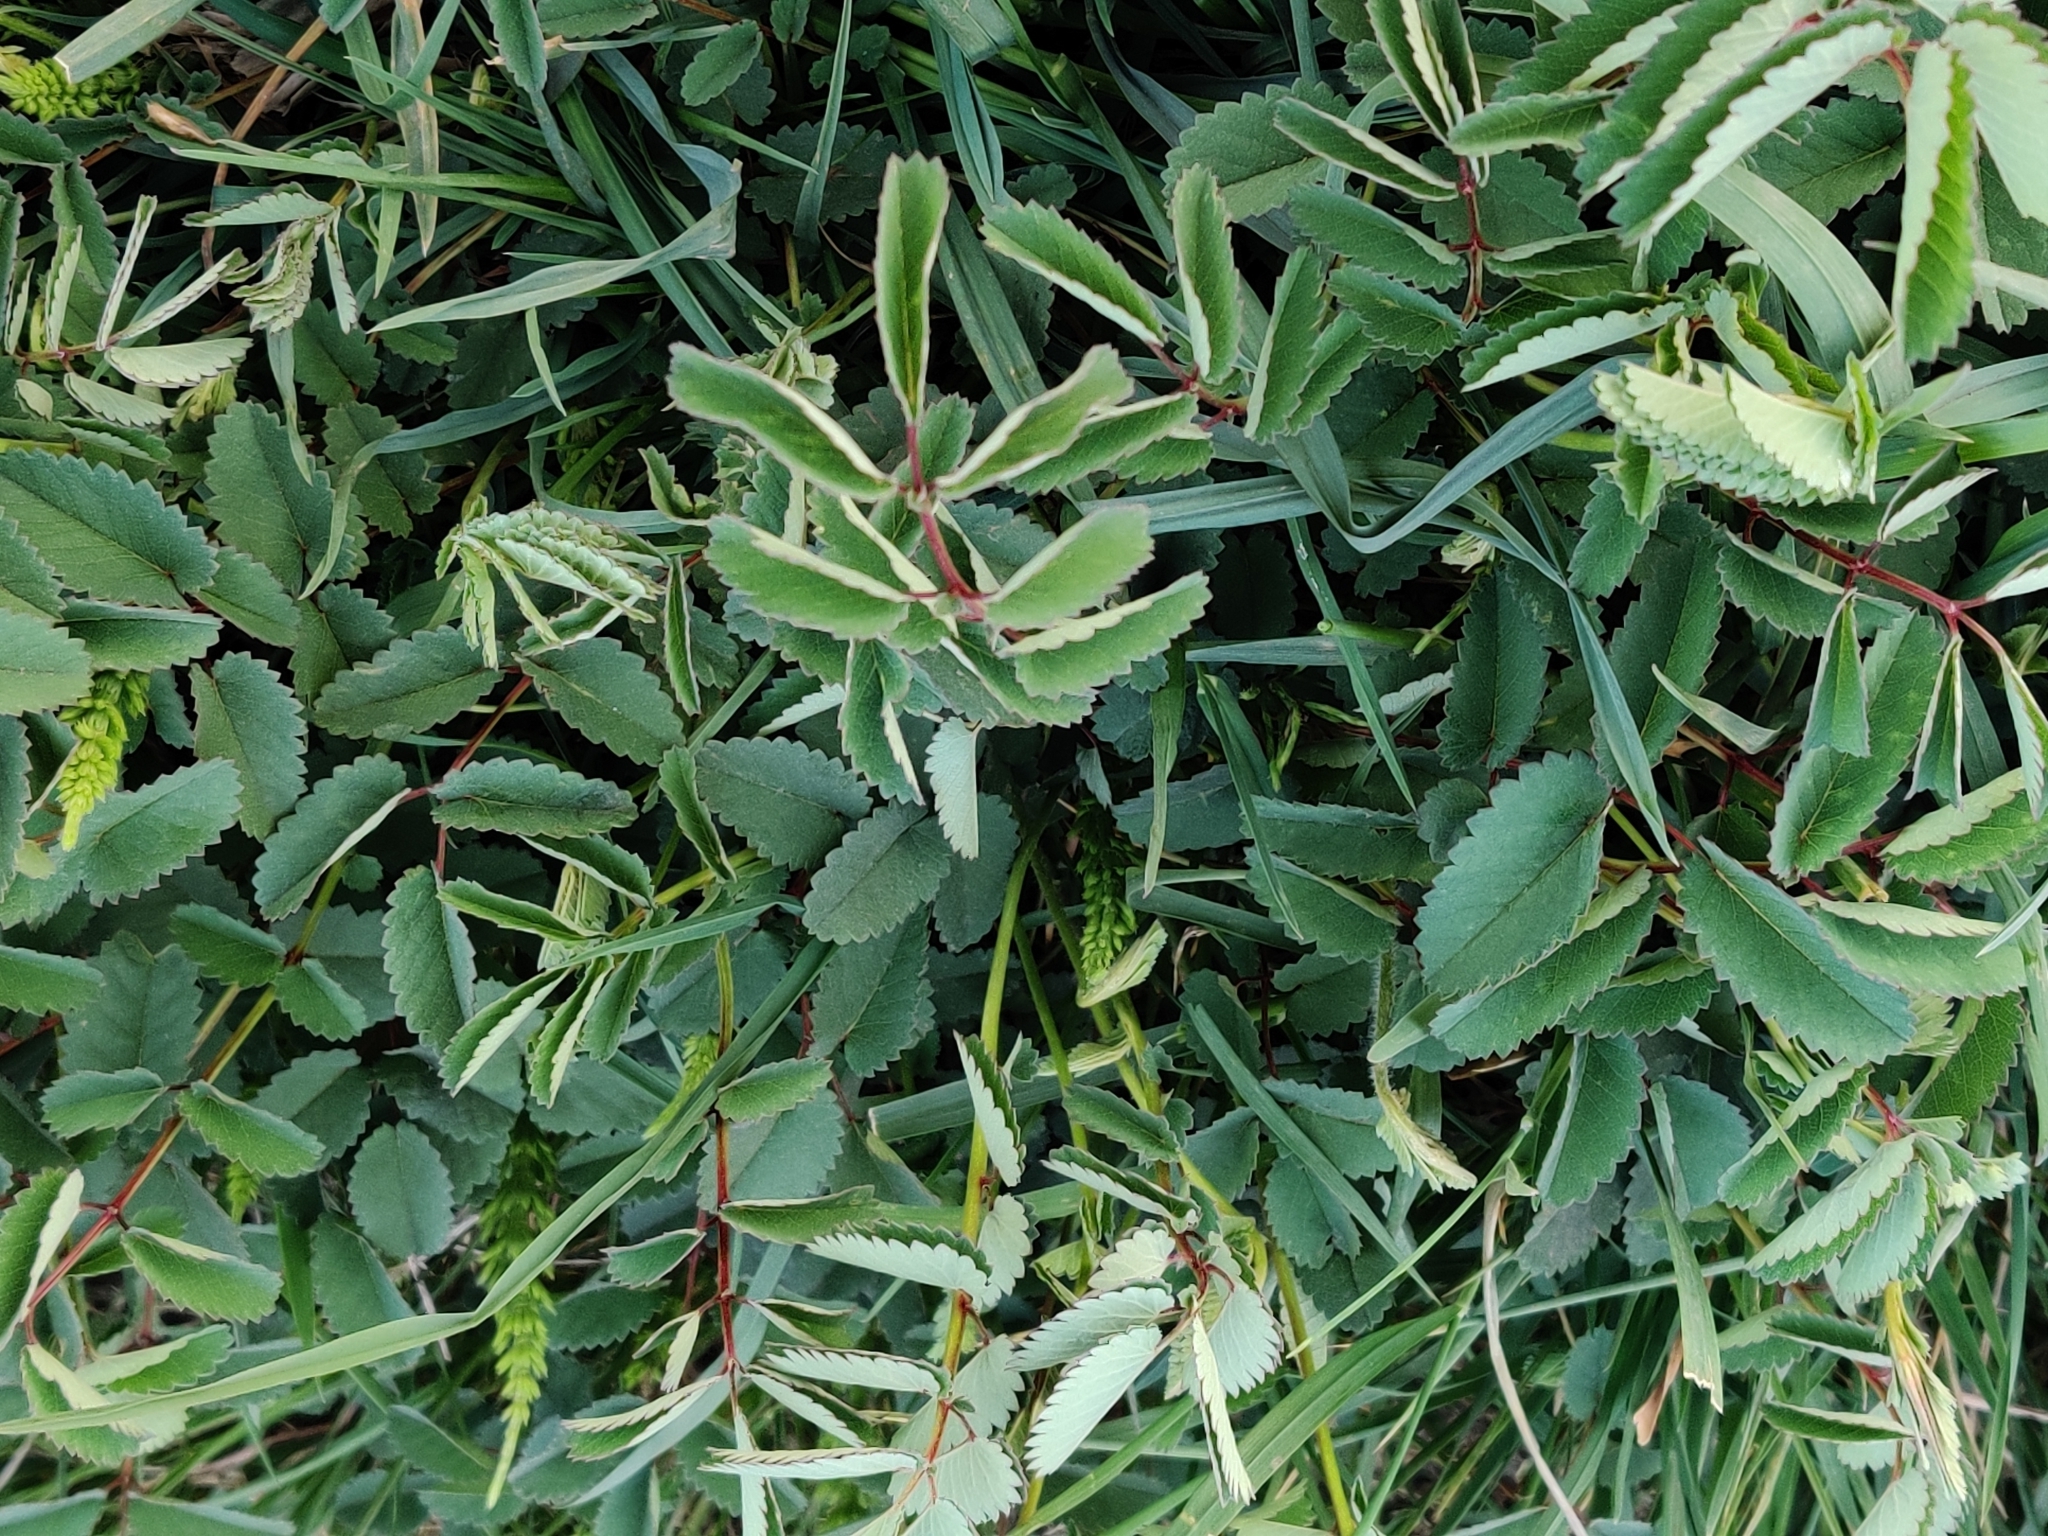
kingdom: Plantae
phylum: Tracheophyta
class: Magnoliopsida
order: Rosales
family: Rosaceae
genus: Sanguisorba
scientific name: Sanguisorba officinalis
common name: Great burnet
